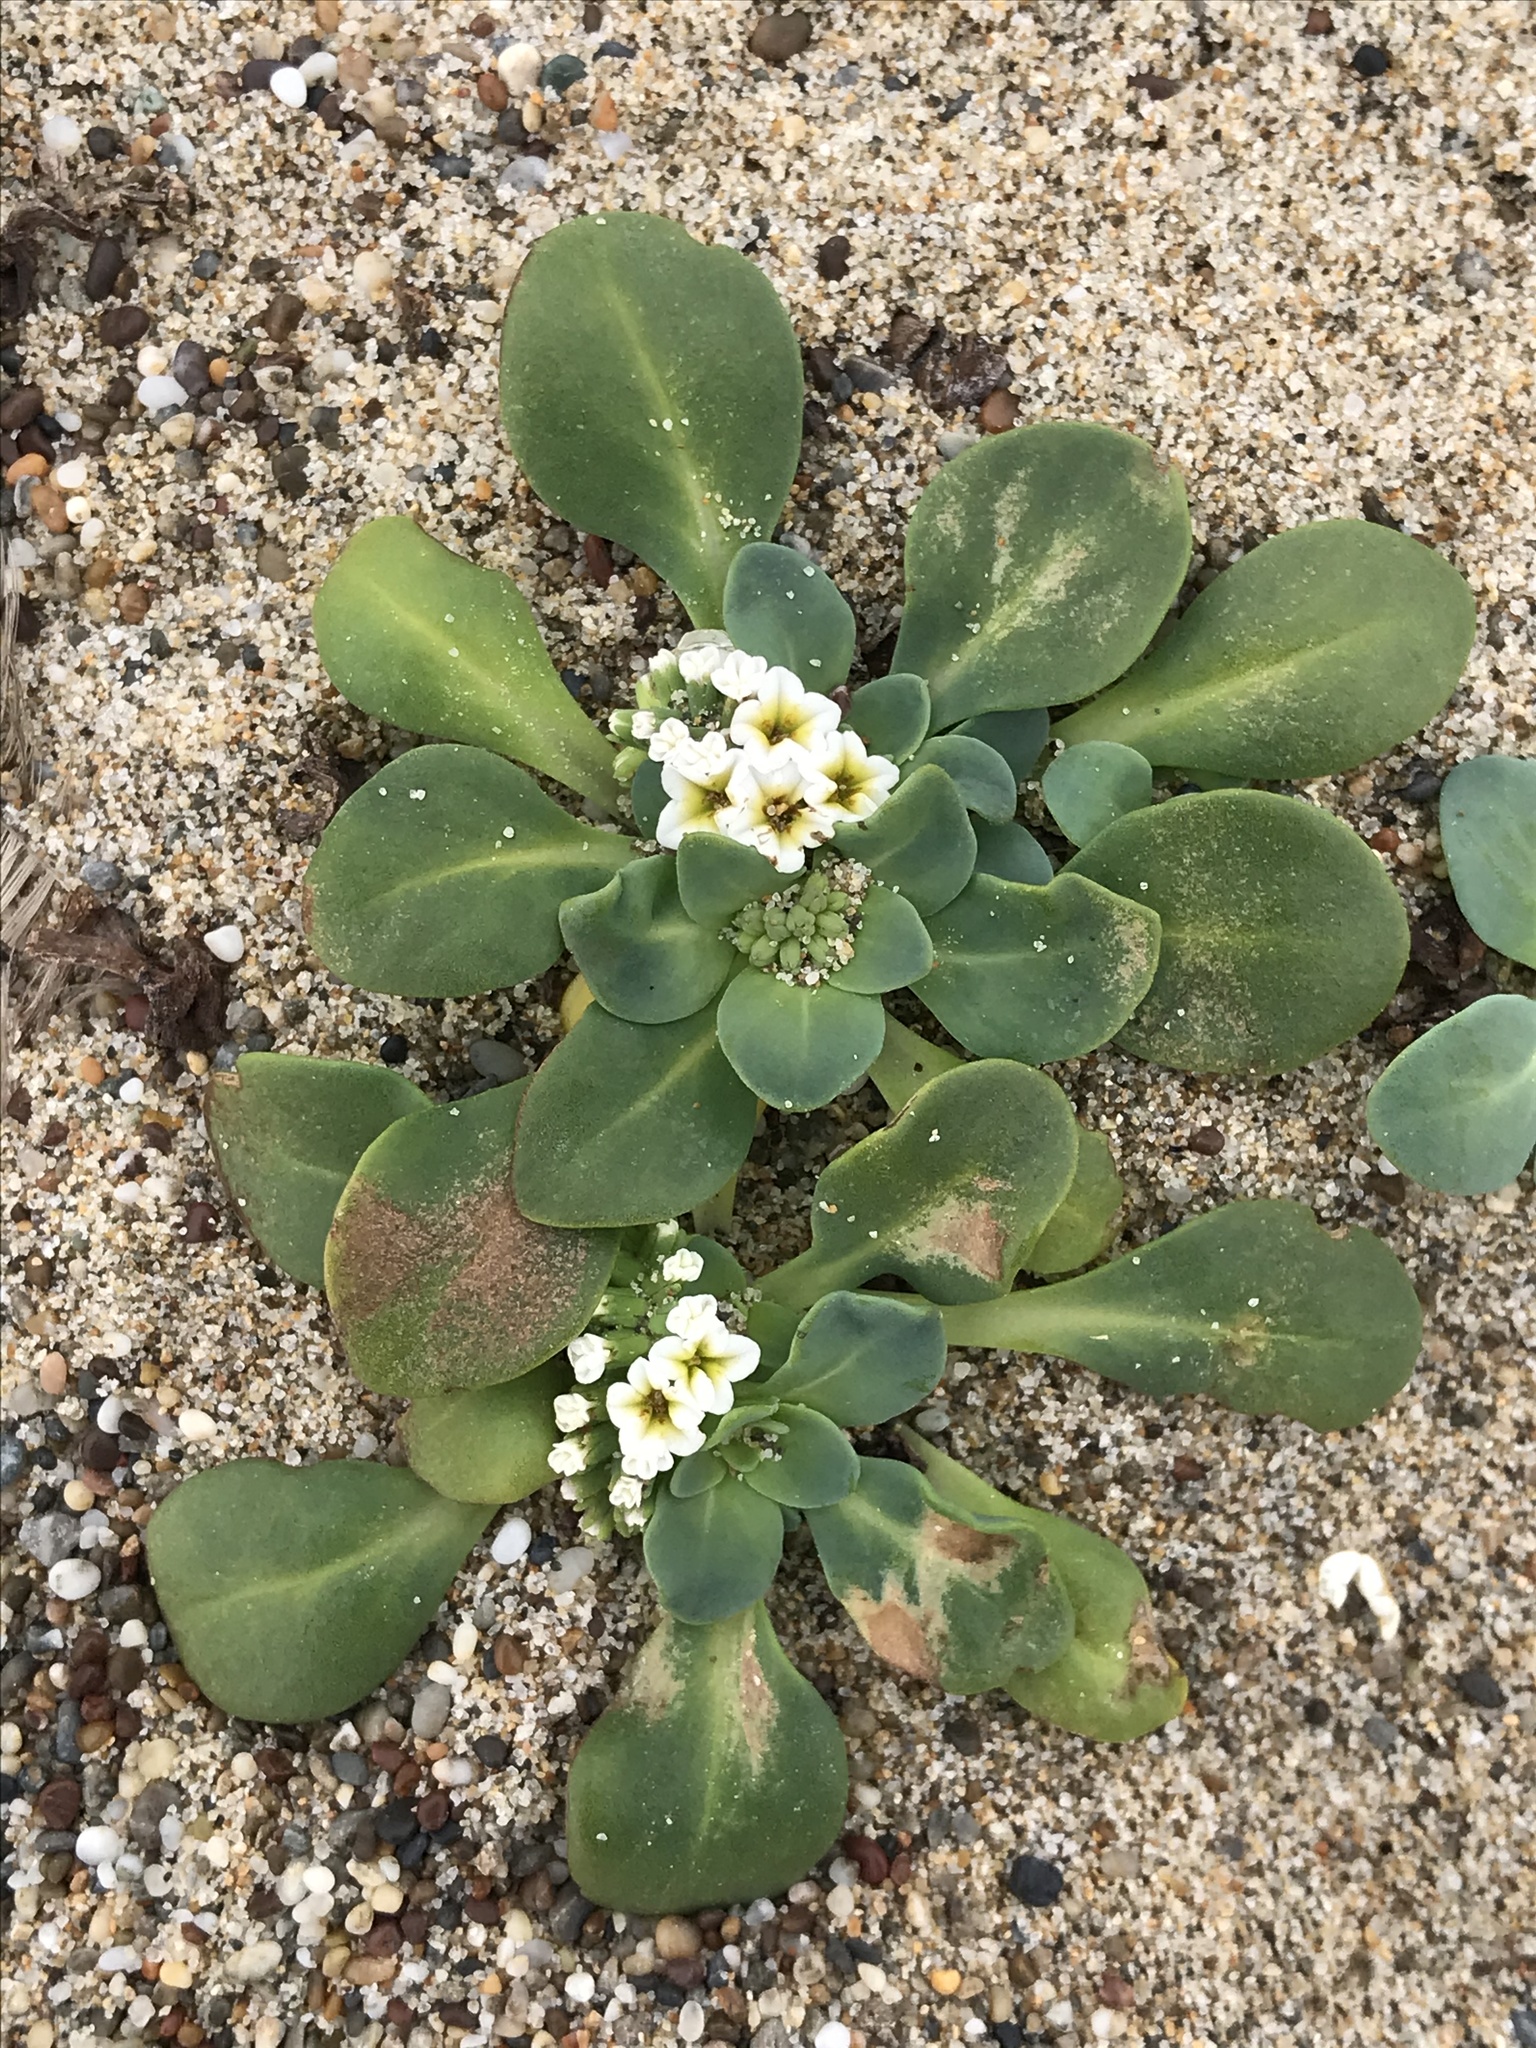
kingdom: Plantae
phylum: Tracheophyta
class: Magnoliopsida
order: Boraginales
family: Heliotropiaceae
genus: Heliotropium
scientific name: Heliotropium curassavicum
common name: Seaside heliotrope
